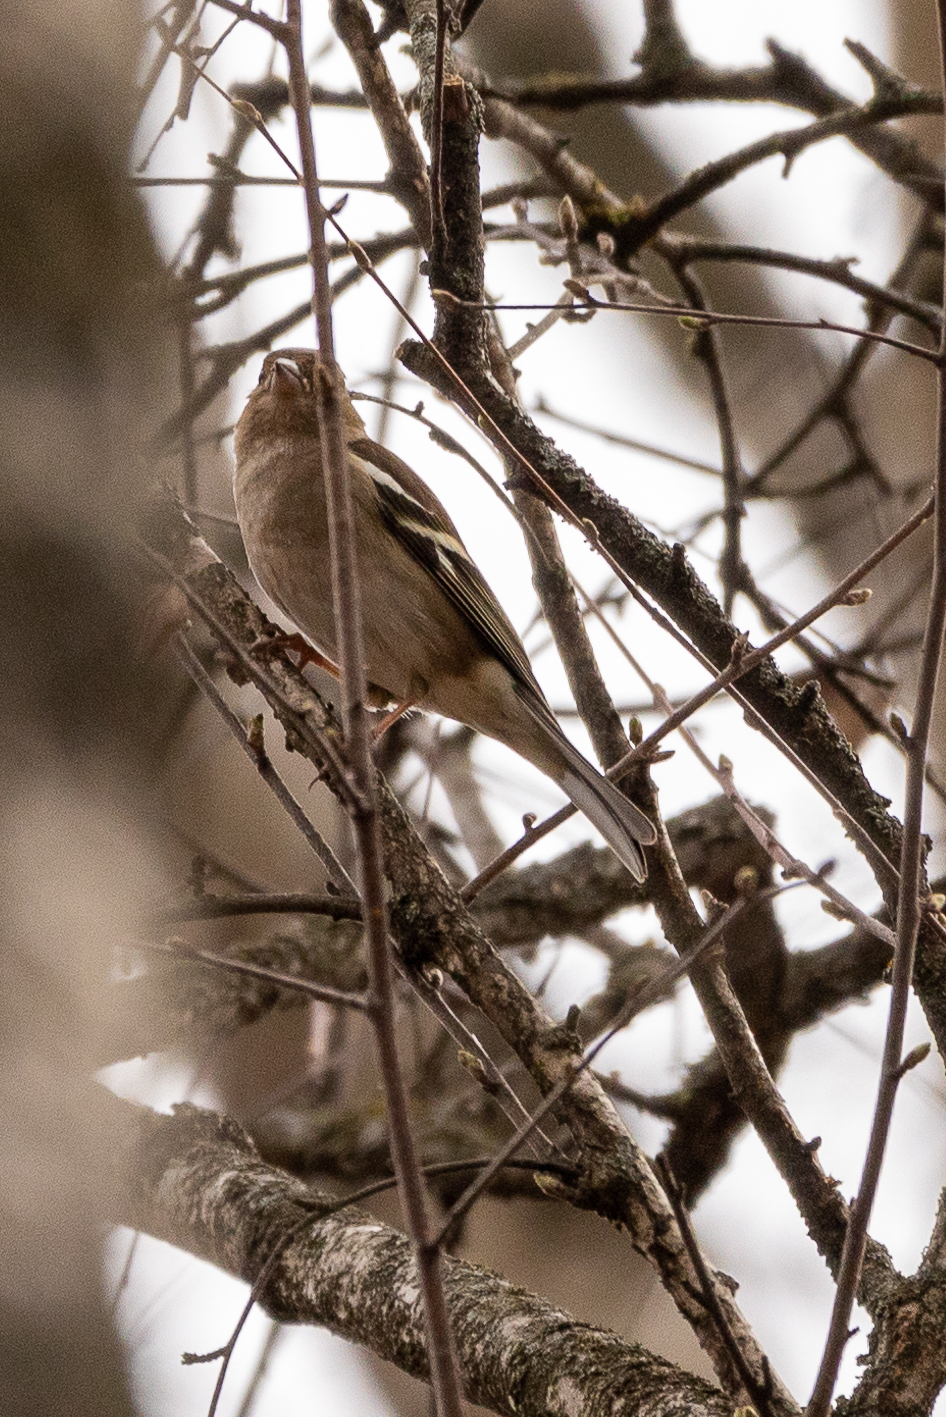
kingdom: Animalia
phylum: Chordata
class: Aves
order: Passeriformes
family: Fringillidae
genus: Fringilla
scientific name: Fringilla coelebs
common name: Common chaffinch
